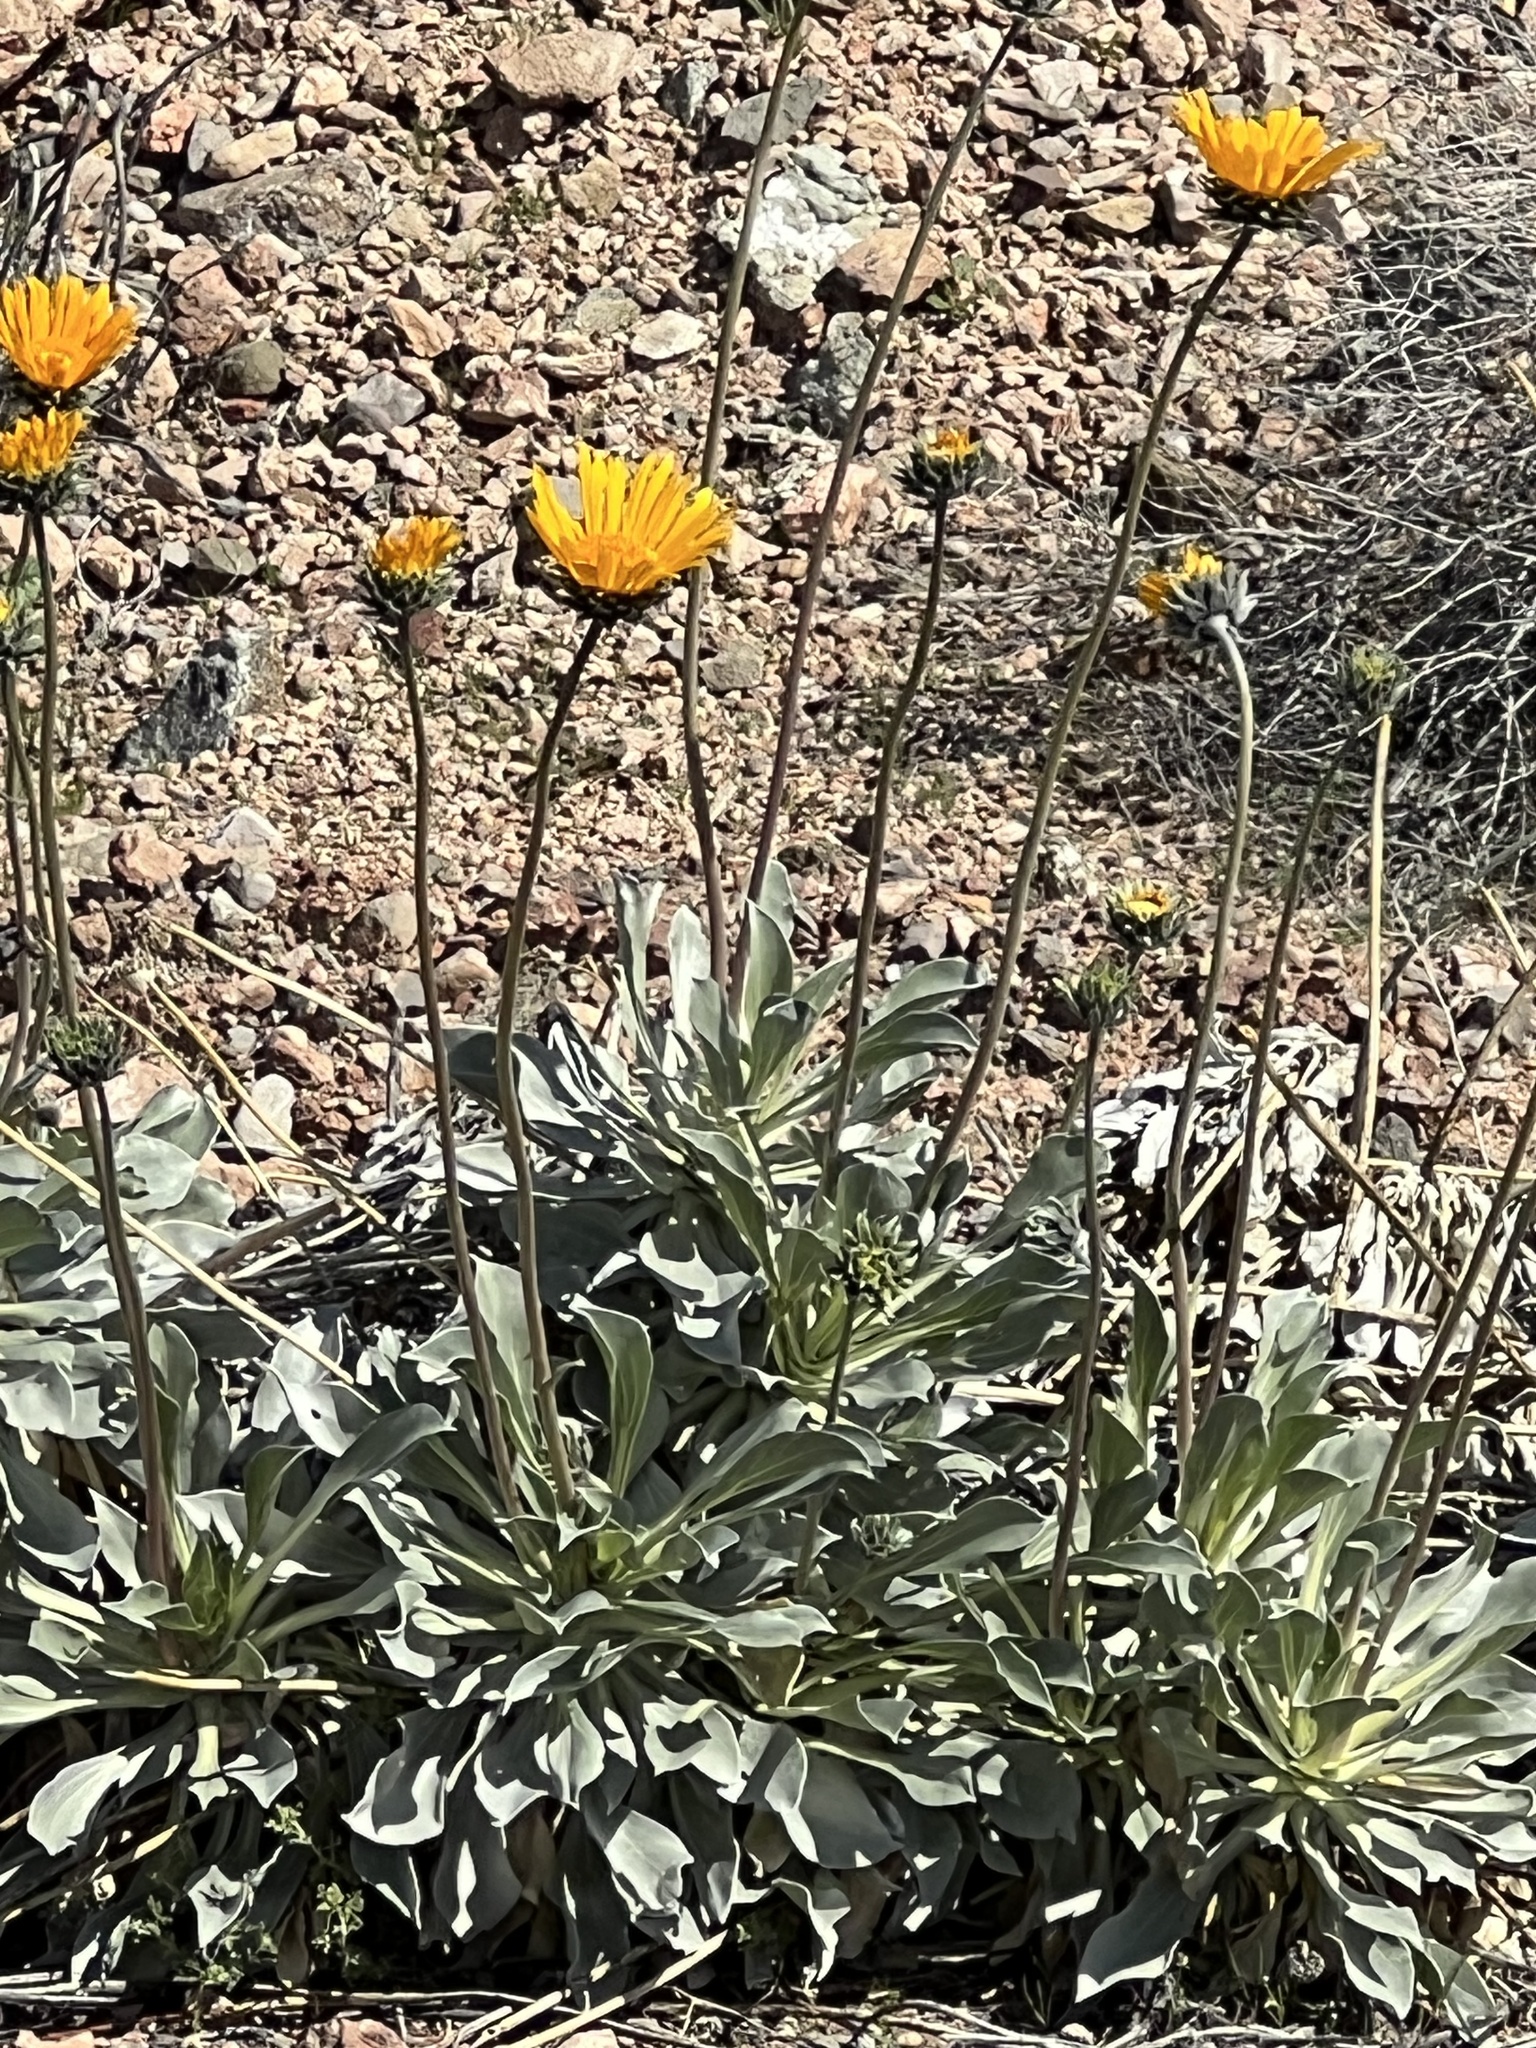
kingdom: Plantae
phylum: Tracheophyta
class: Magnoliopsida
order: Asterales
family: Asteraceae
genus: Enceliopsis
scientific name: Enceliopsis argophylla
